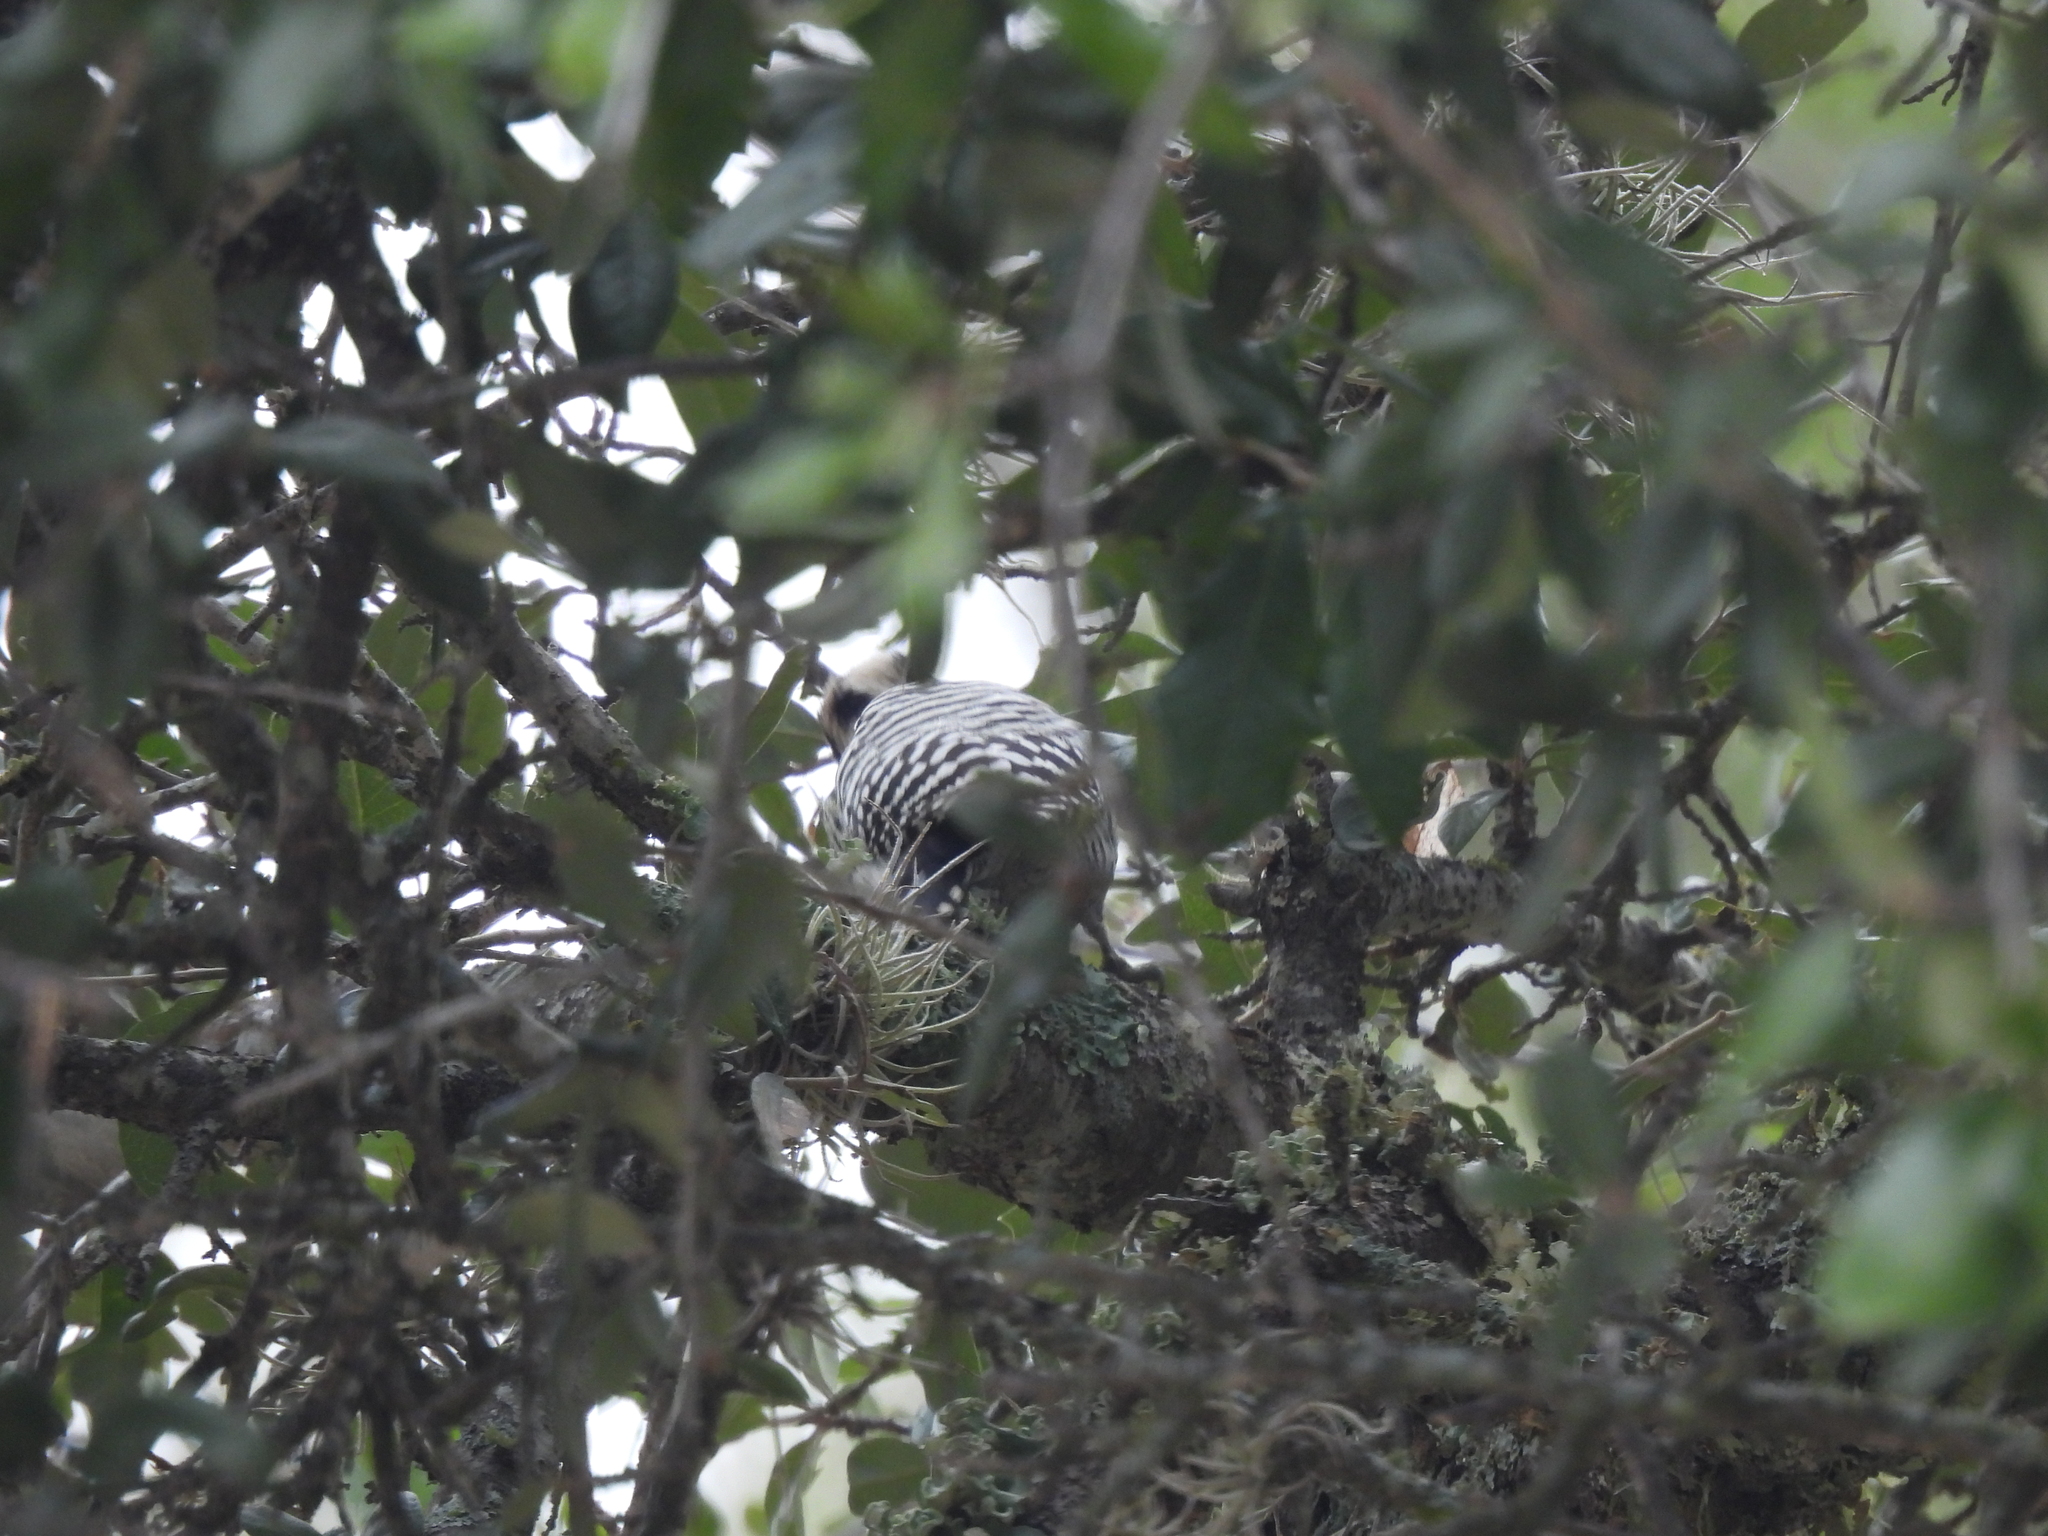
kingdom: Animalia
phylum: Chordata
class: Aves
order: Piciformes
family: Picidae
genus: Dryobates
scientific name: Dryobates scalaris
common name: Ladder-backed woodpecker
